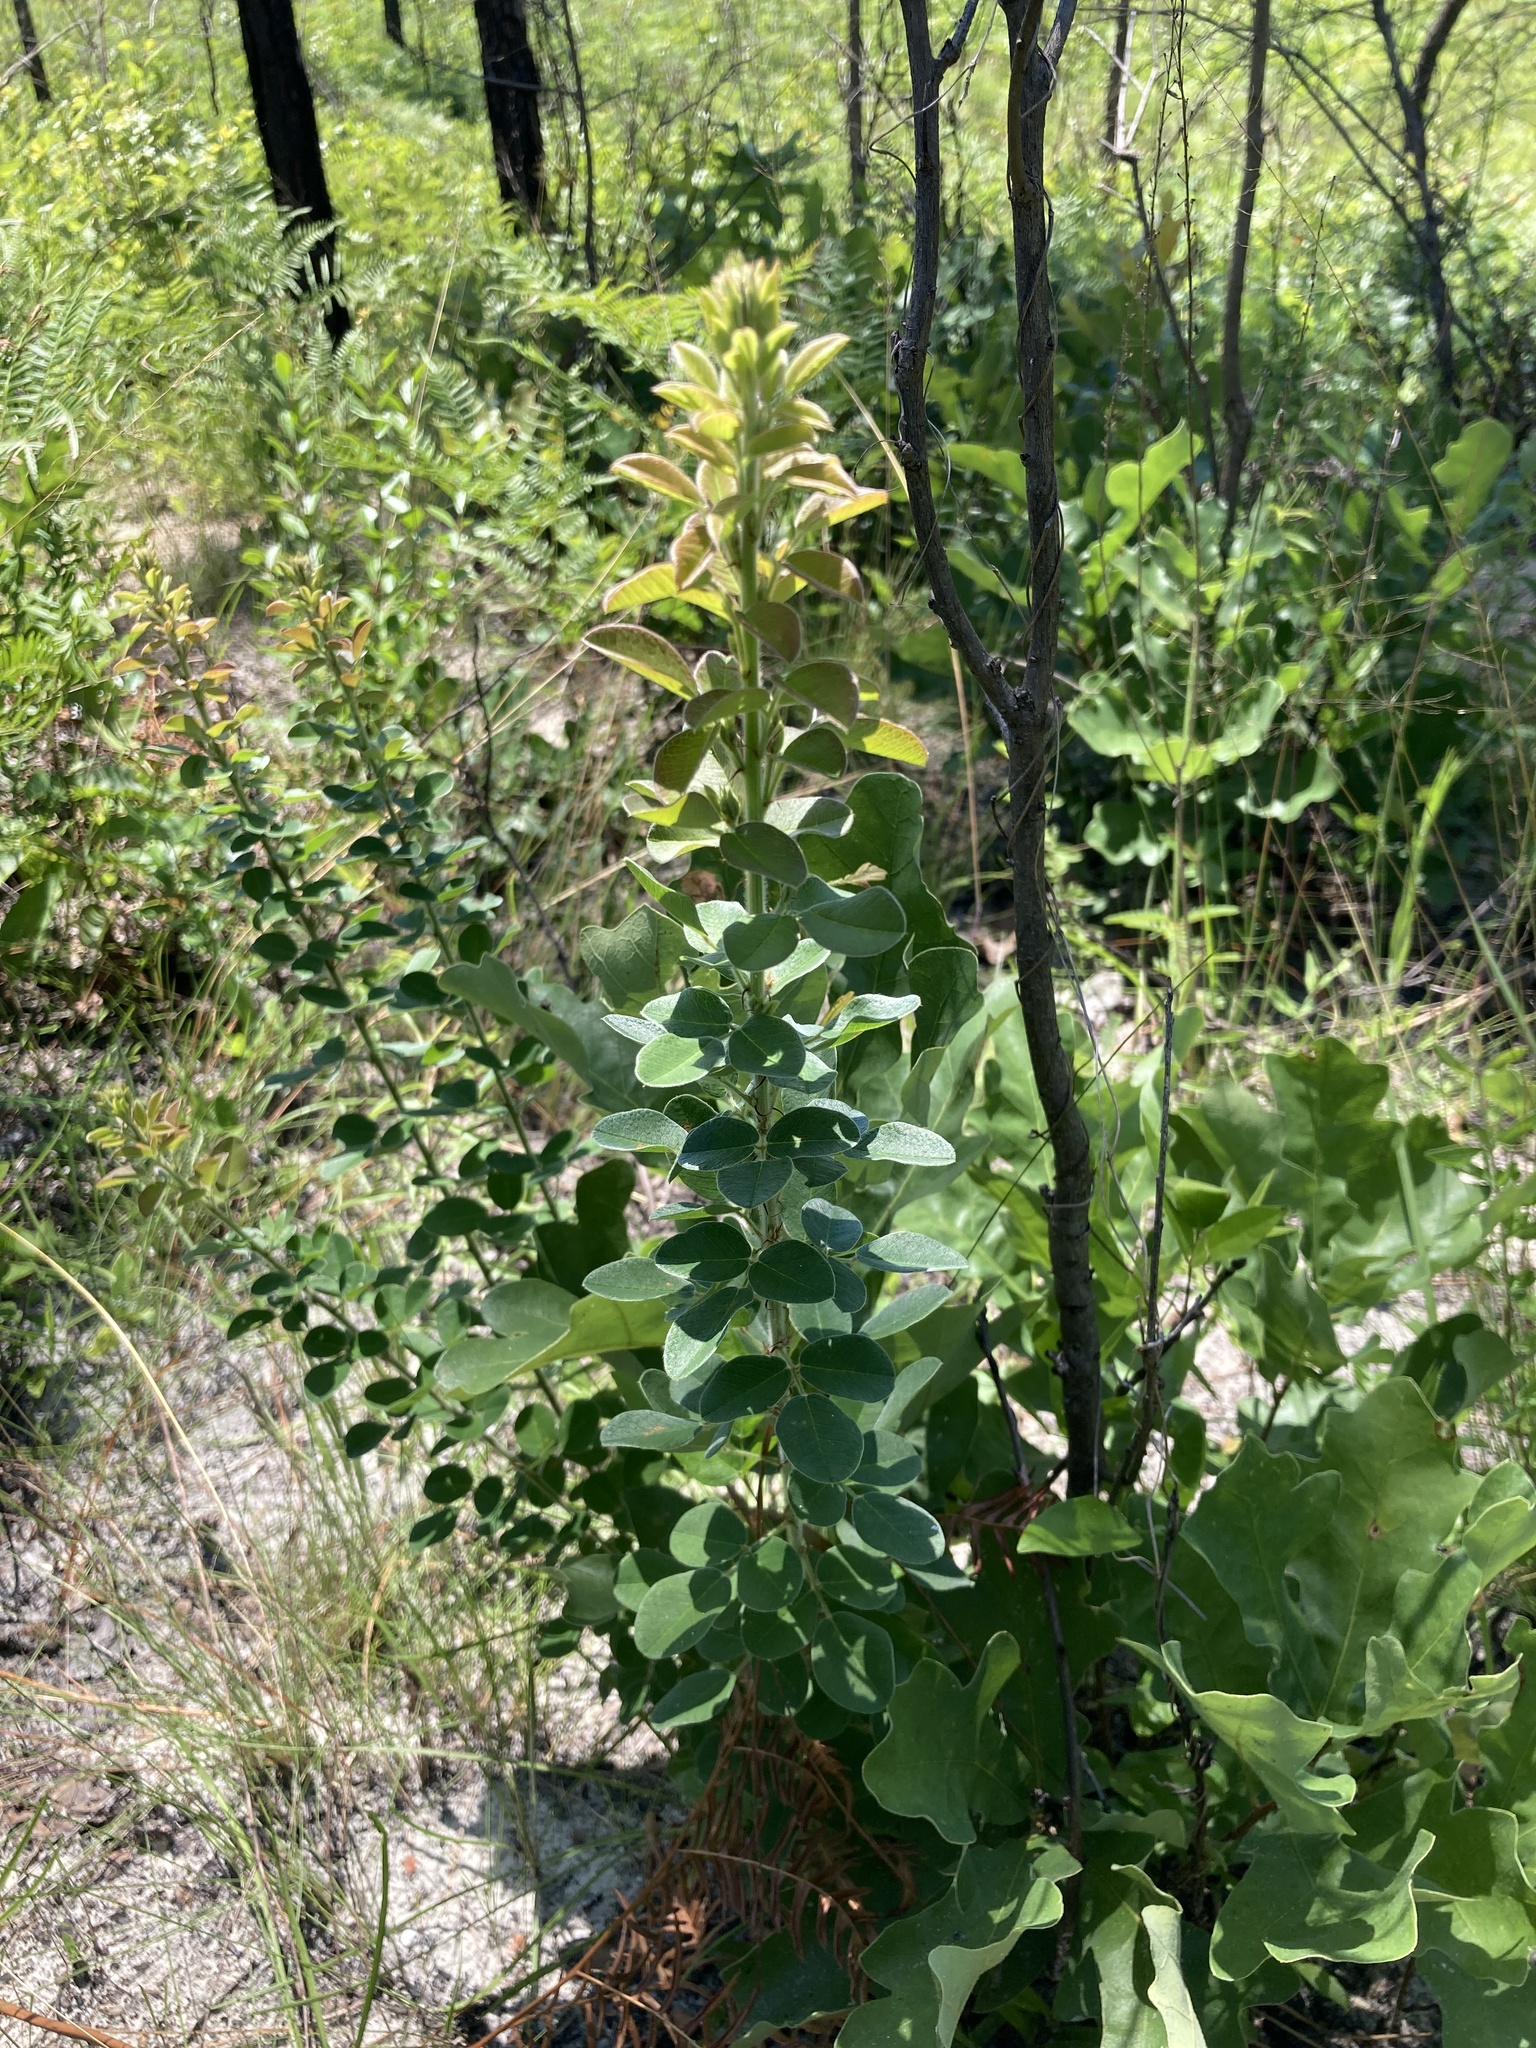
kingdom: Plantae
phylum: Tracheophyta
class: Magnoliopsida
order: Fabales
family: Fabaceae
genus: Lespedeza
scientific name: Lespedeza hirta
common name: Hairy lespedeza
